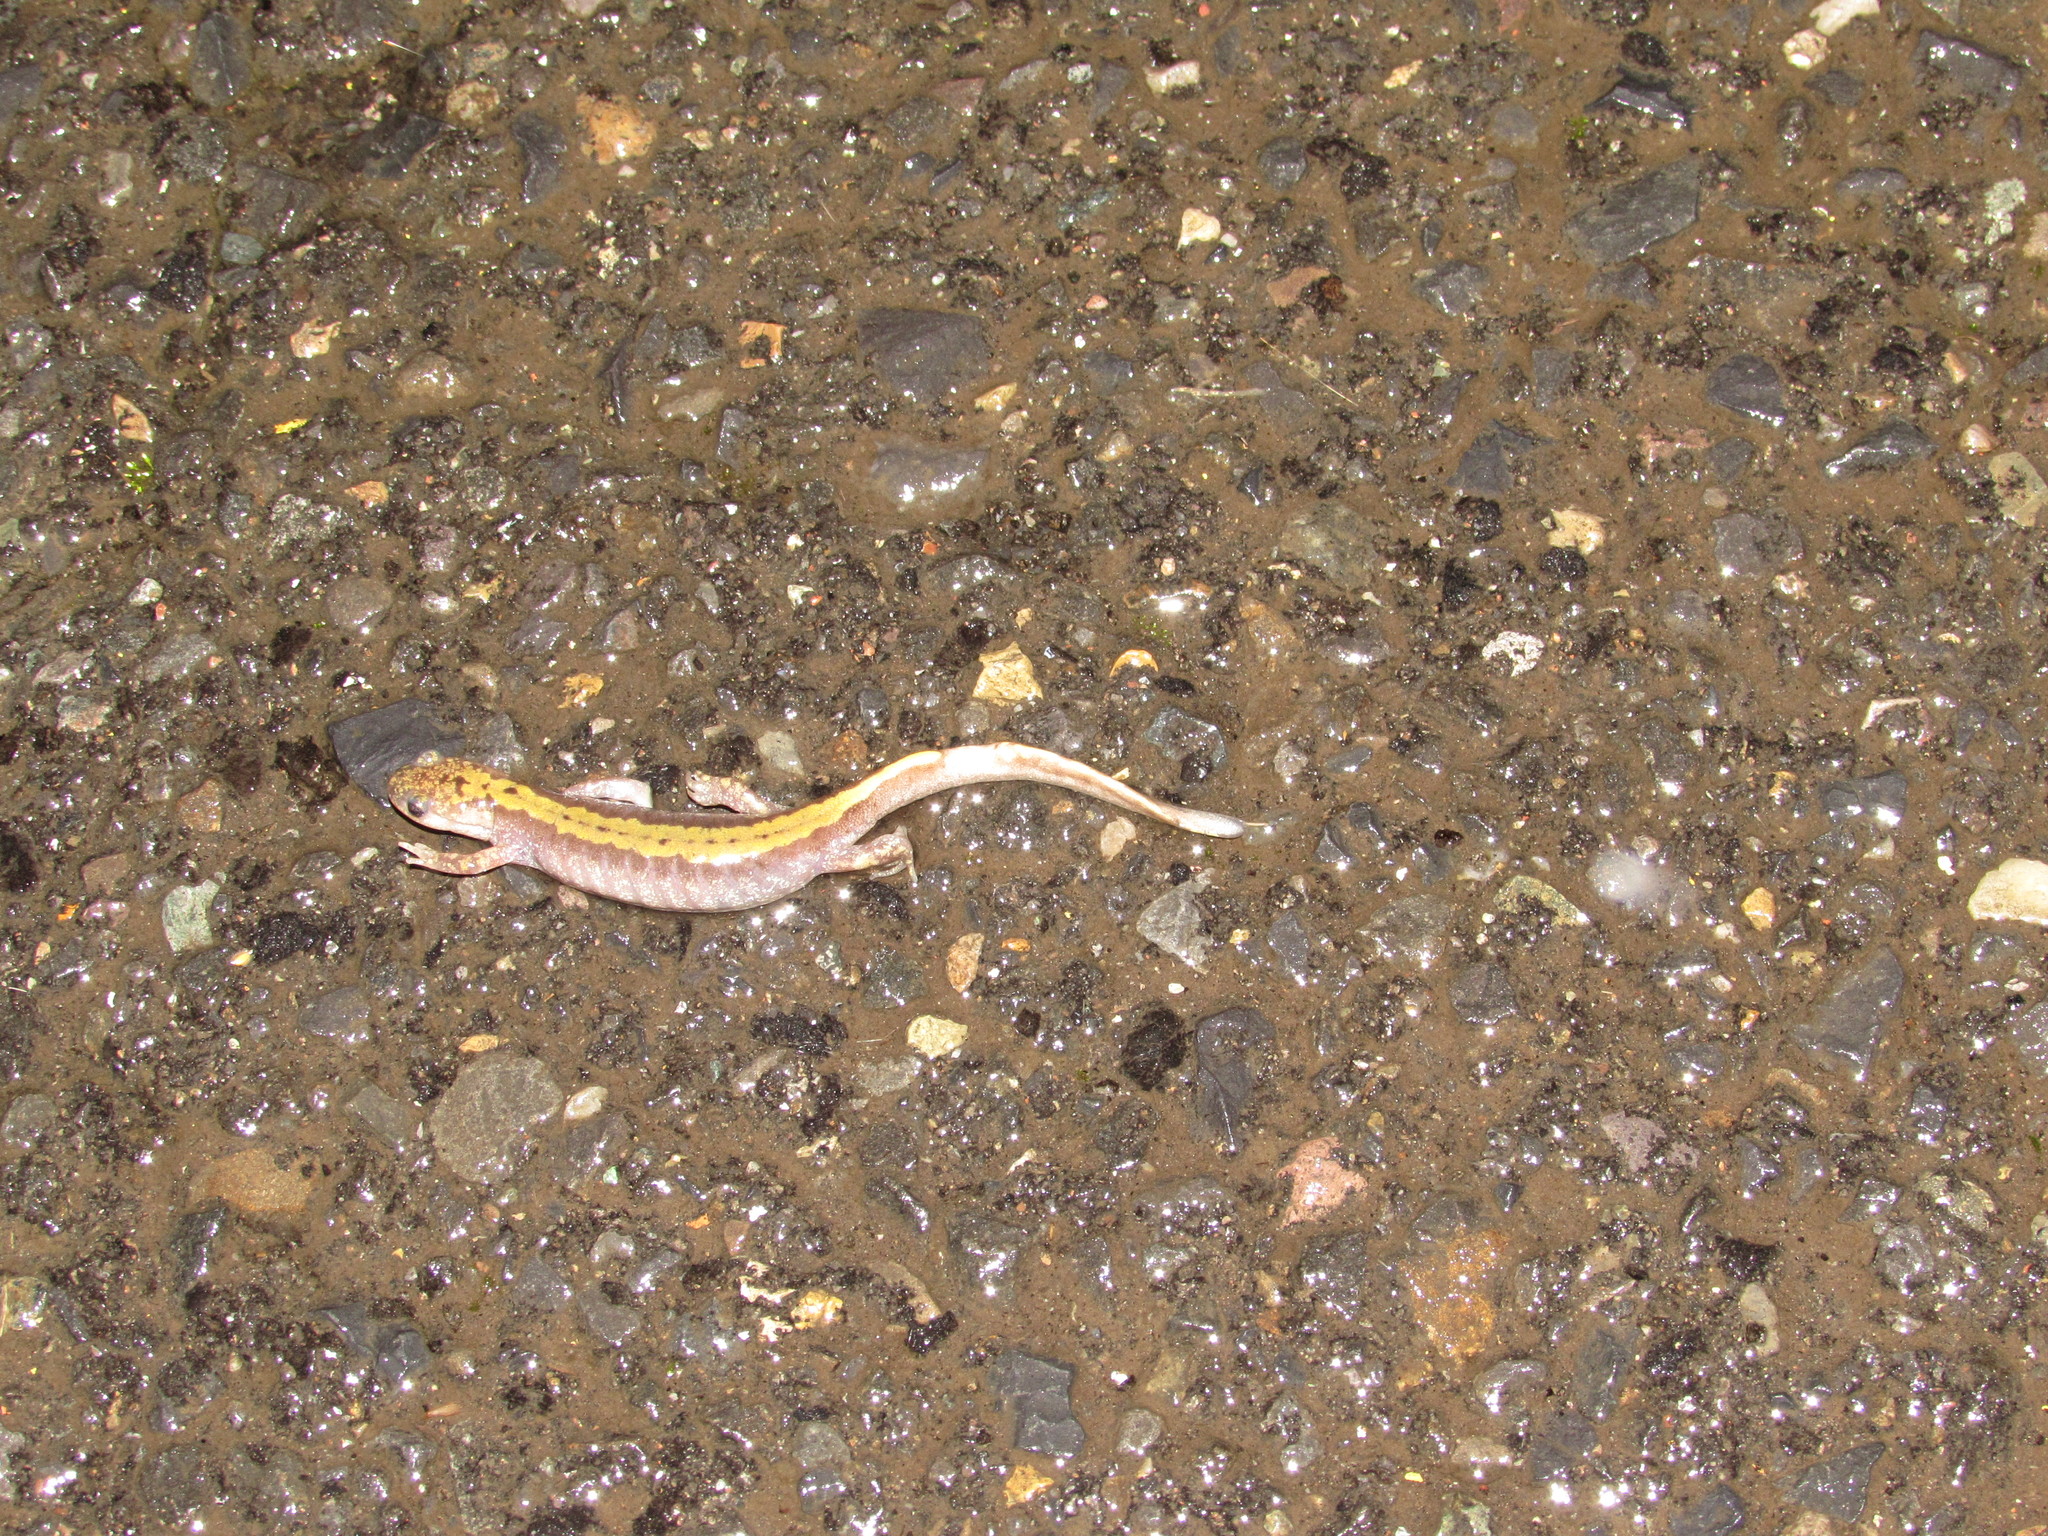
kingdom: Animalia
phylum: Chordata
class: Amphibia
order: Caudata
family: Ambystomatidae
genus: Ambystoma
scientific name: Ambystoma macrodactylum
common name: Long-toed salamander
